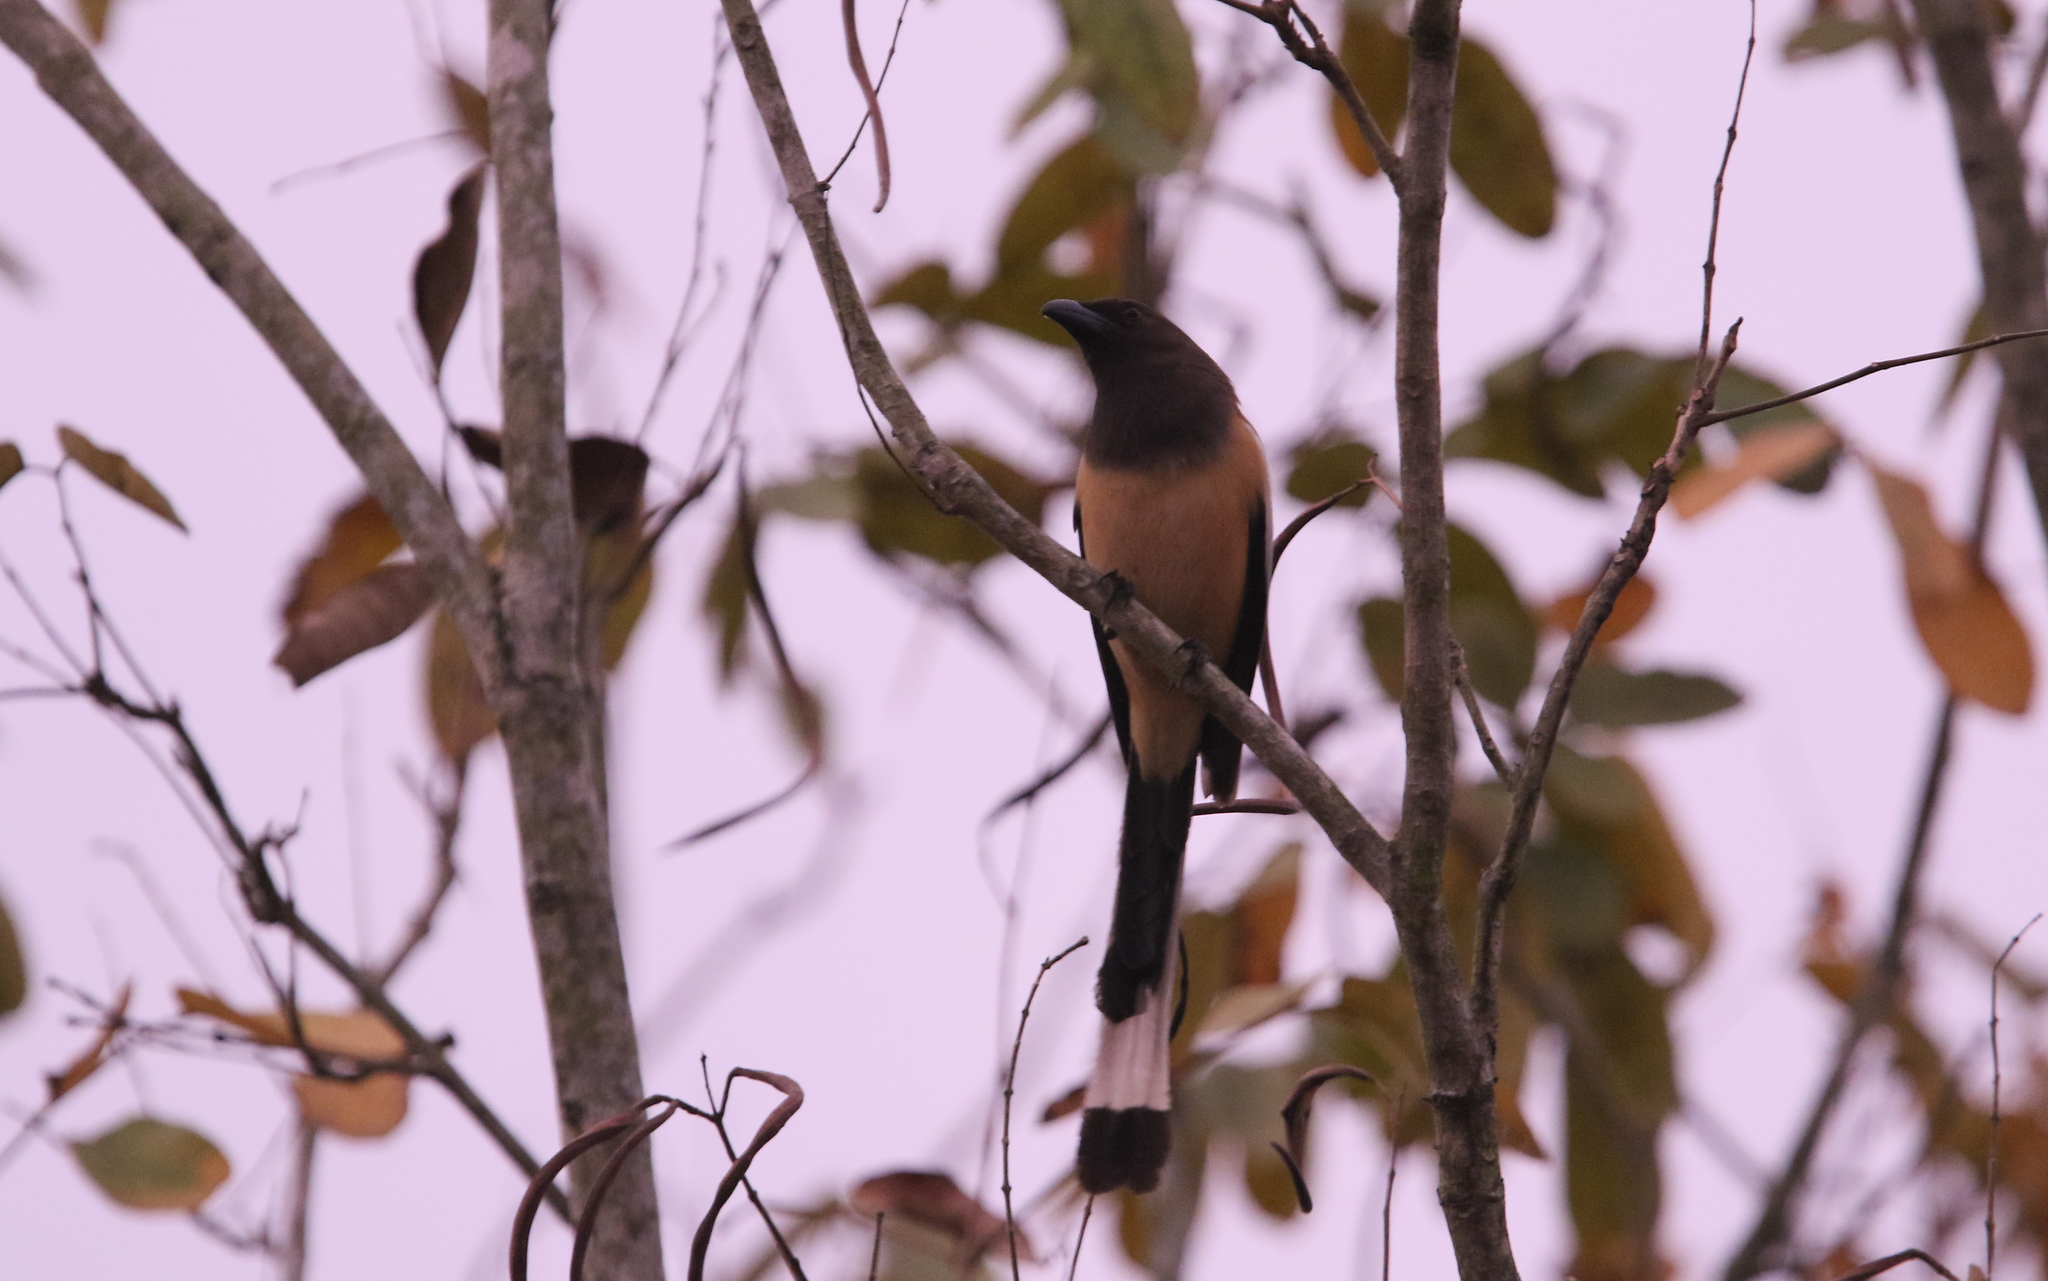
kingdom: Animalia
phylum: Chordata
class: Aves
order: Passeriformes
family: Corvidae
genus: Dendrocitta
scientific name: Dendrocitta vagabunda
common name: Rufous treepie
